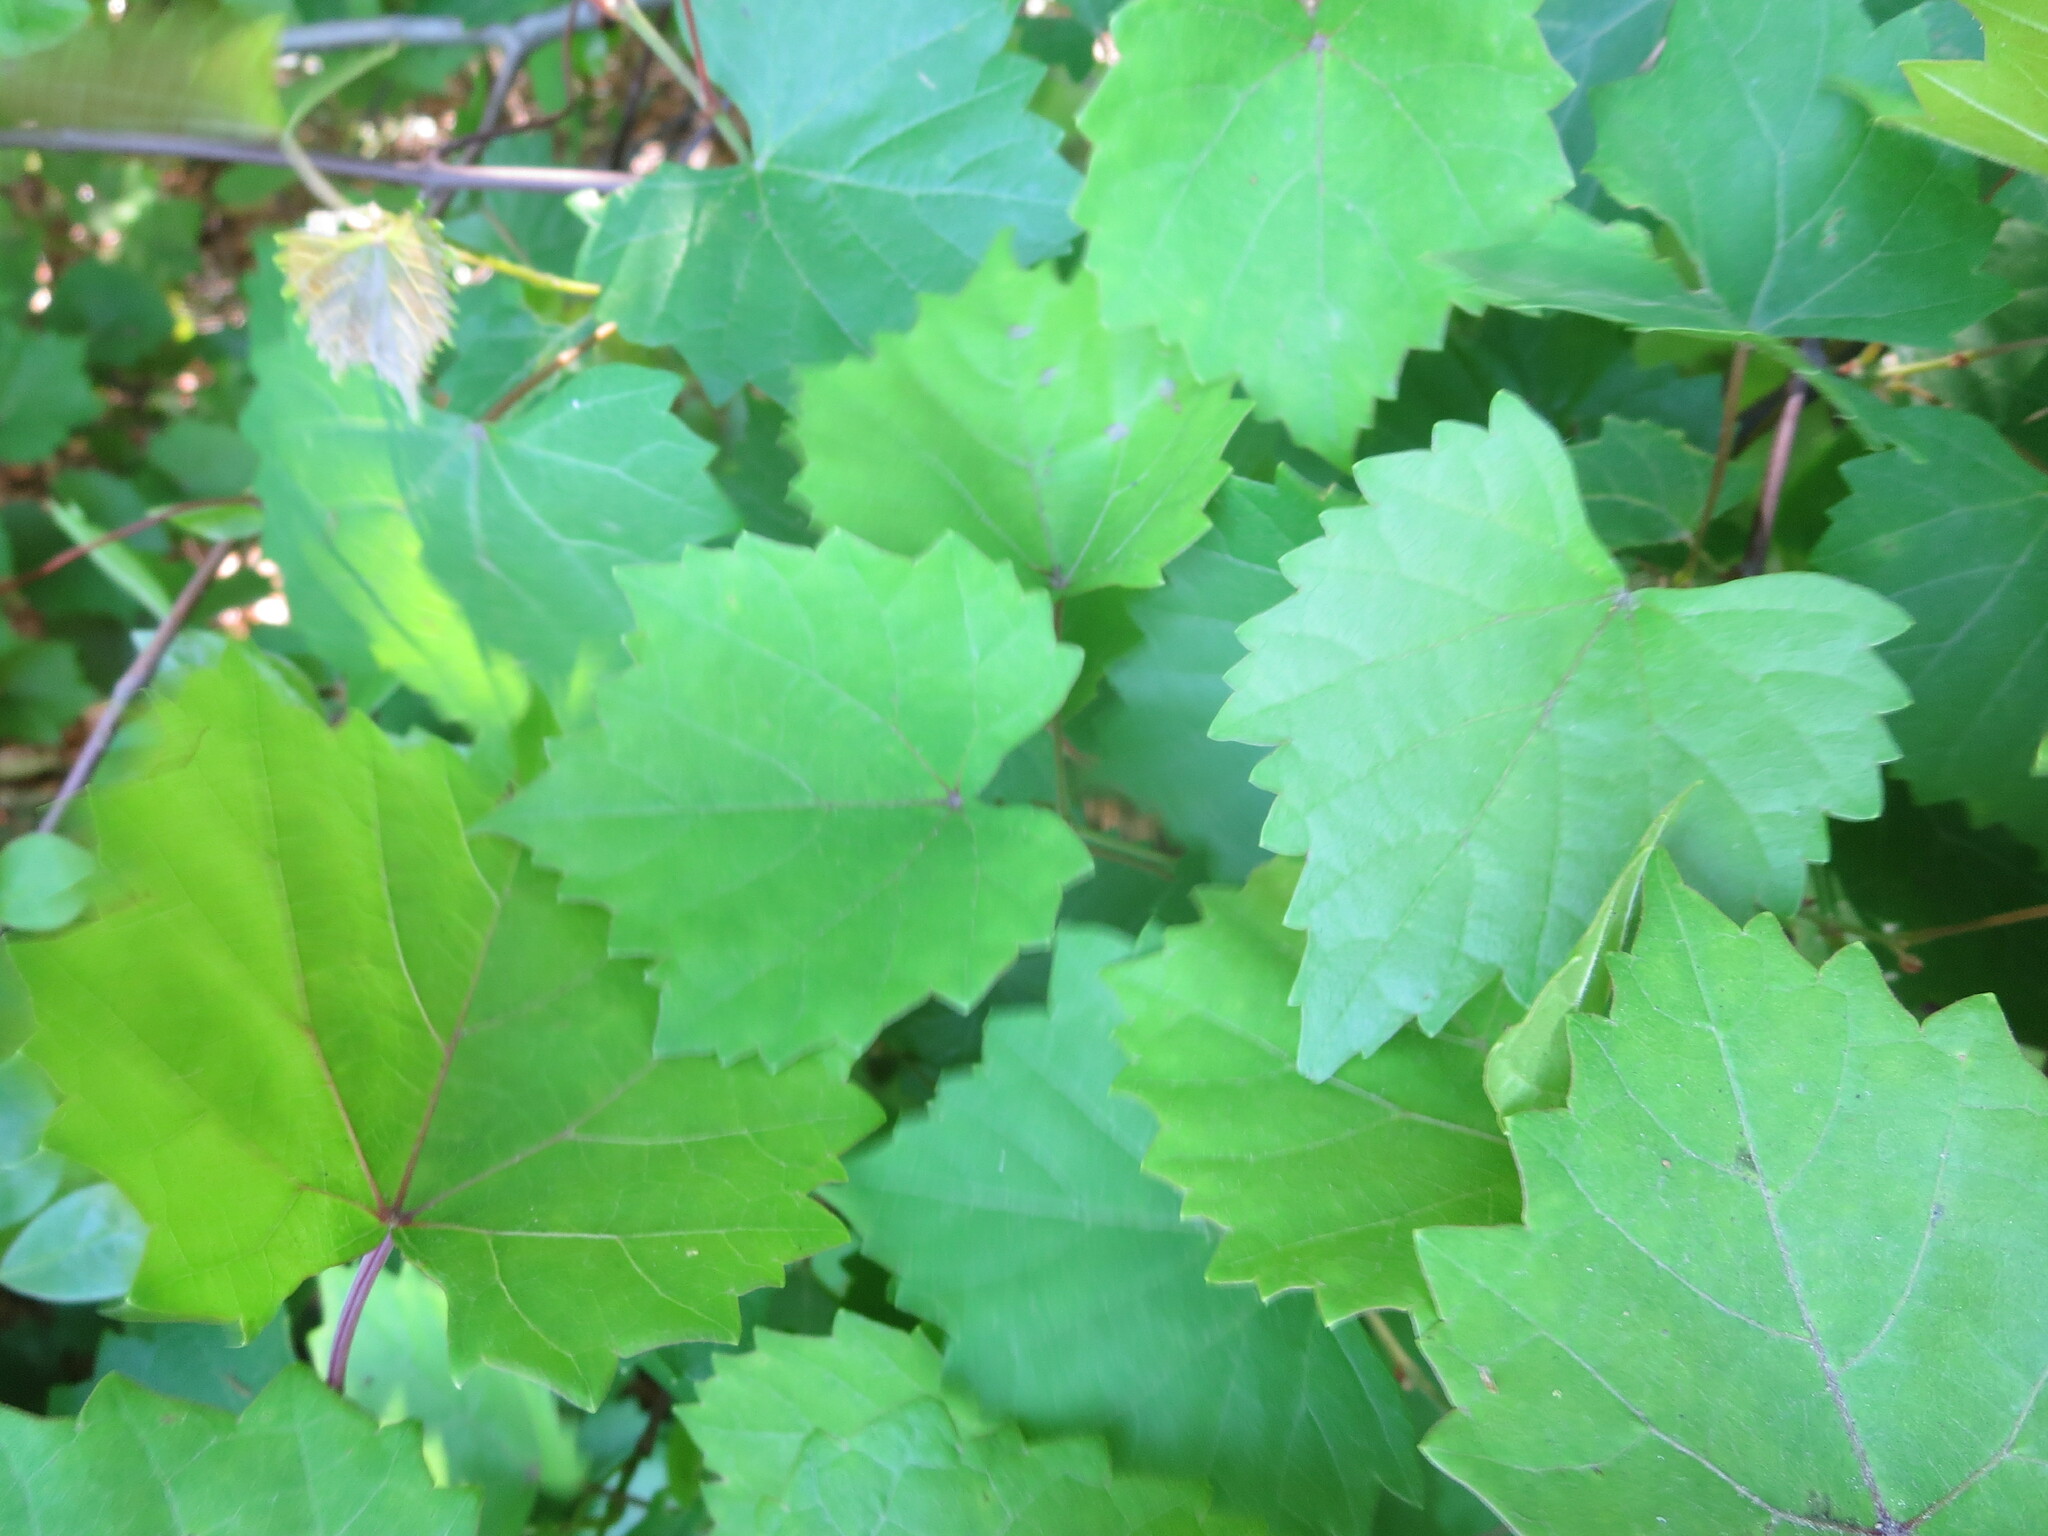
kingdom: Plantae
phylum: Tracheophyta
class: Magnoliopsida
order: Vitales
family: Vitaceae
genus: Vitis
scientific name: Vitis rotundifolia
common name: Muscadine grape
